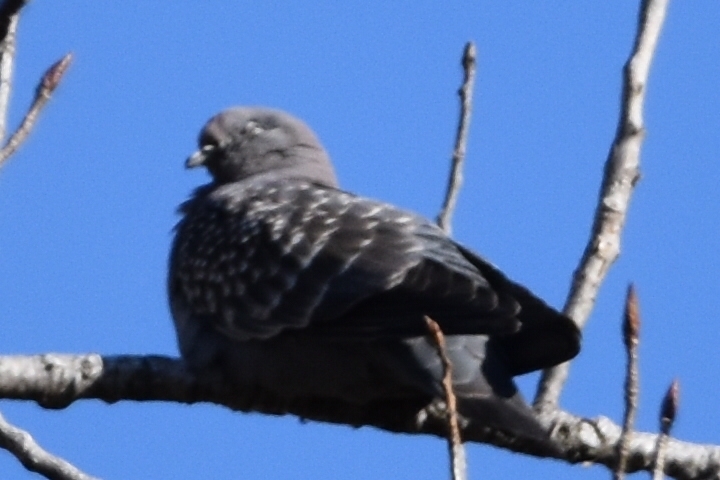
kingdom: Animalia
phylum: Chordata
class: Aves
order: Columbiformes
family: Columbidae
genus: Patagioenas
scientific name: Patagioenas maculosa
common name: Spot-winged pigeon
